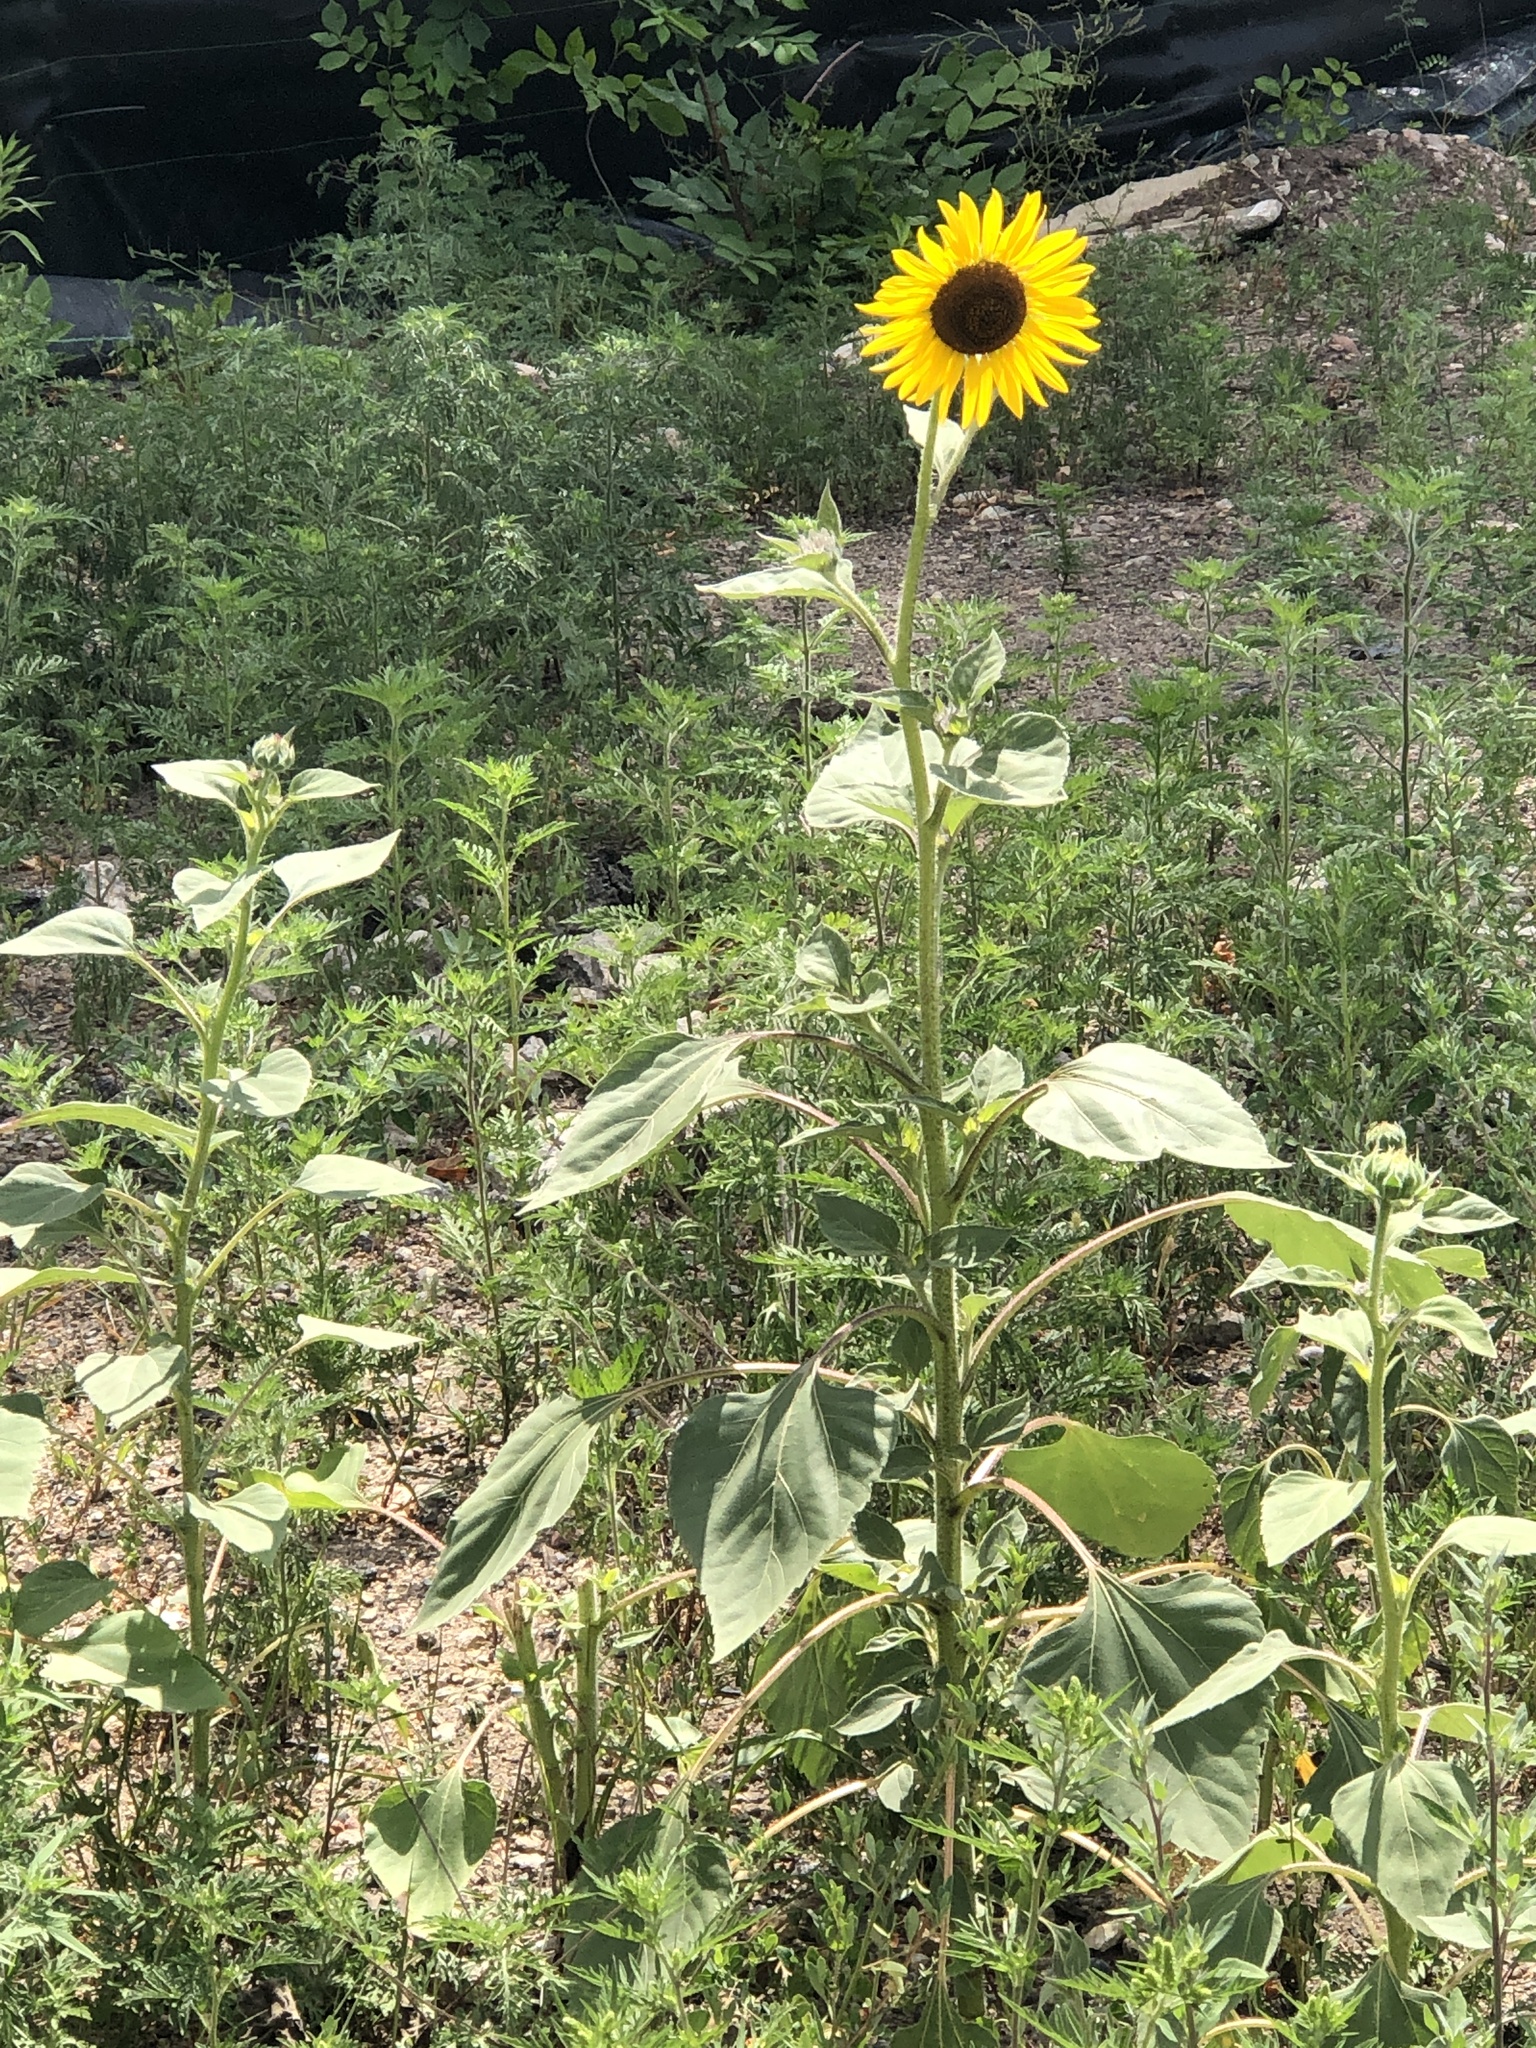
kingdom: Plantae
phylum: Tracheophyta
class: Magnoliopsida
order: Asterales
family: Asteraceae
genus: Helianthus
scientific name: Helianthus annuus
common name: Sunflower
